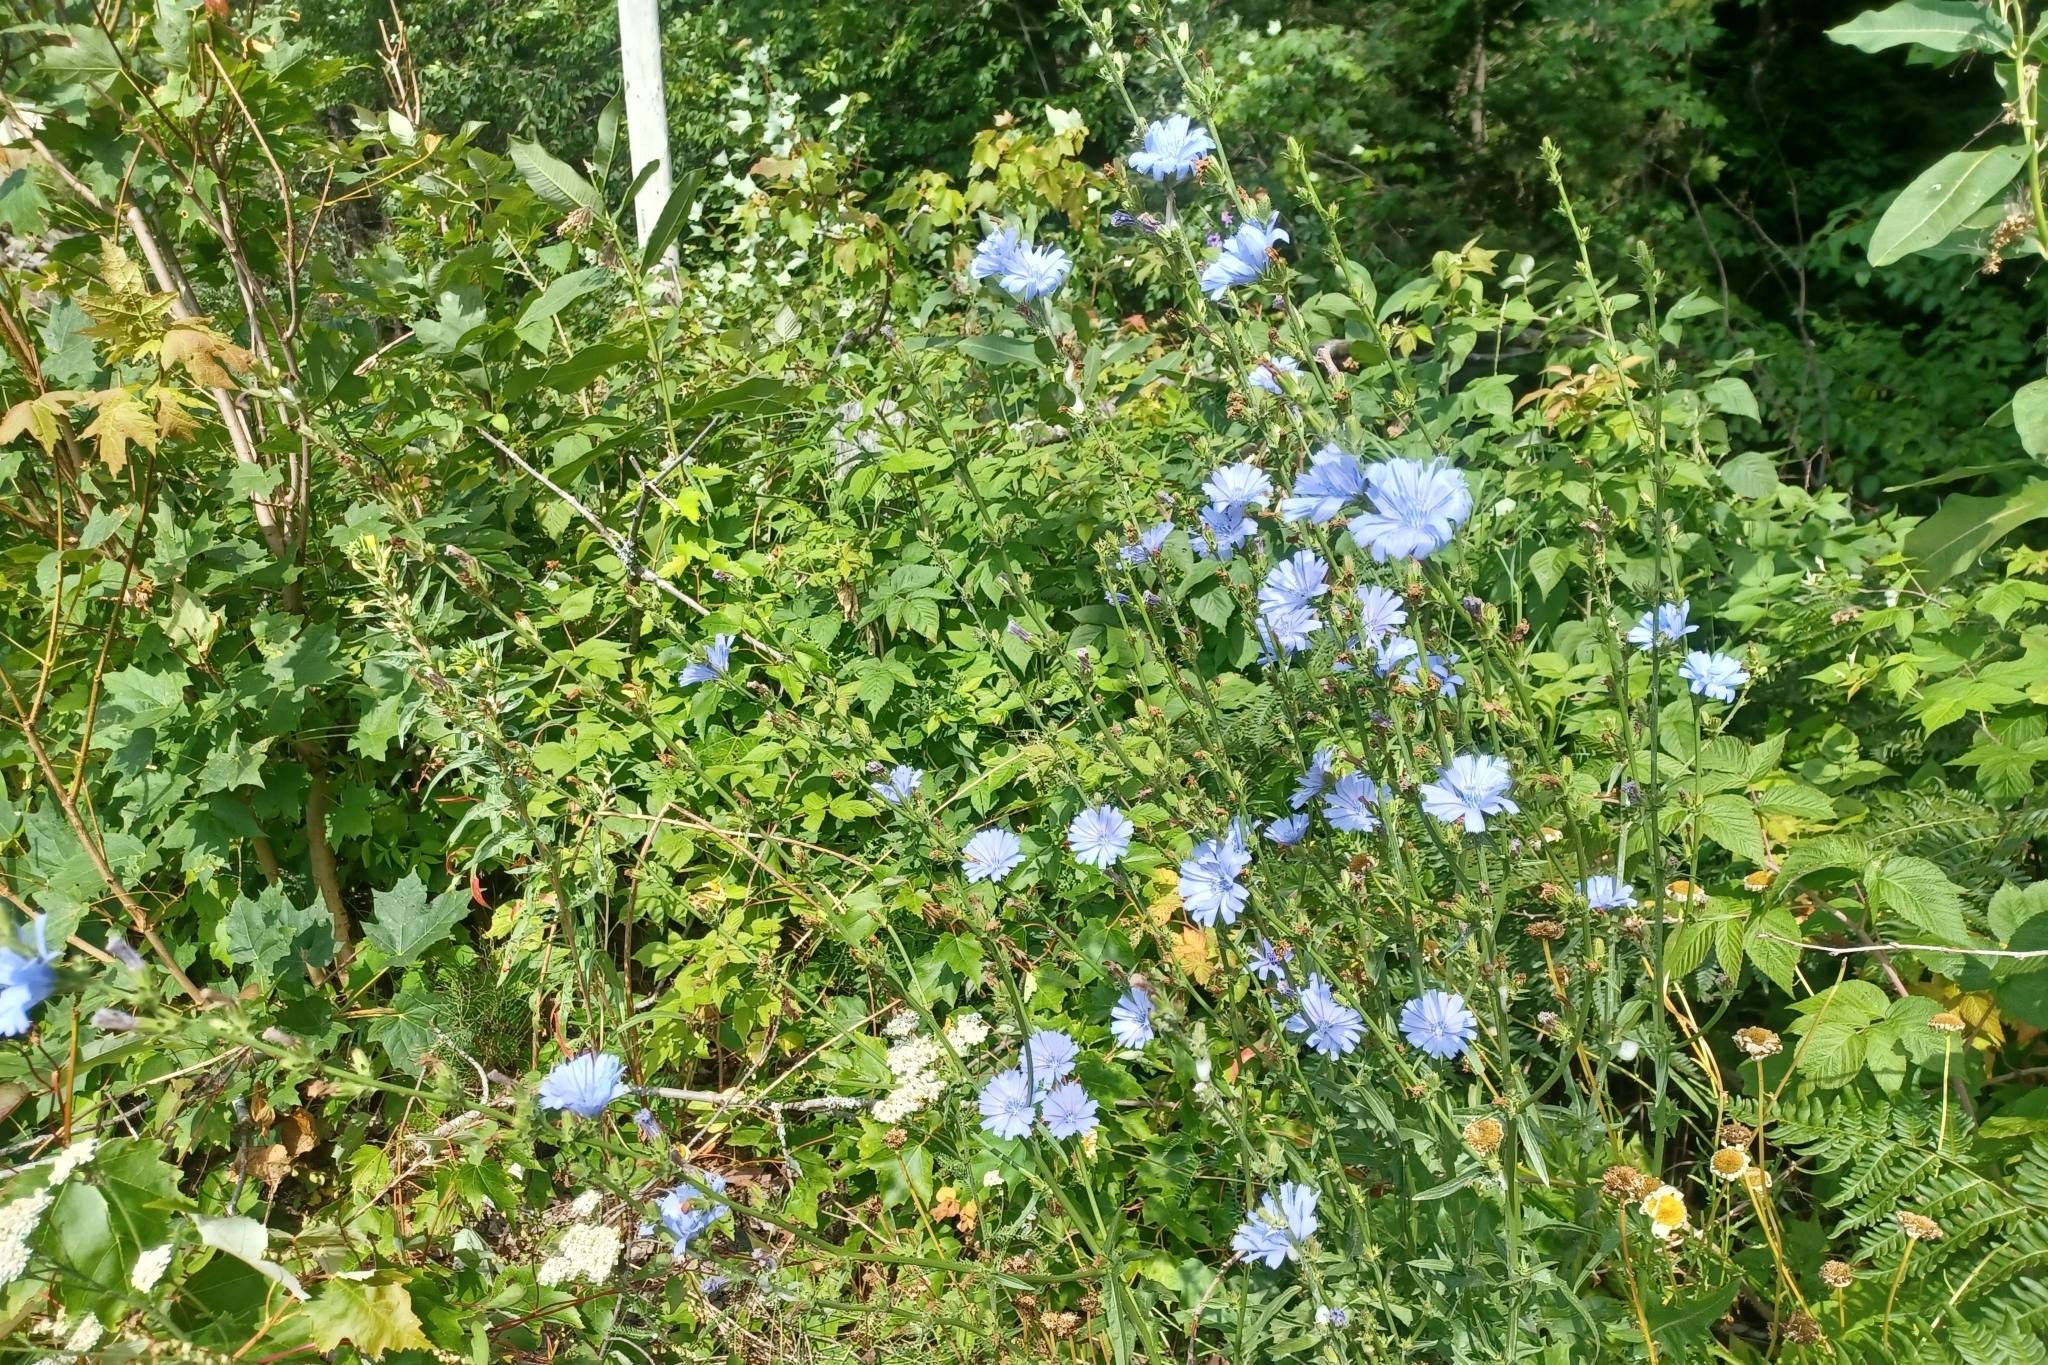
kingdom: Plantae
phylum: Tracheophyta
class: Magnoliopsida
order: Asterales
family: Asteraceae
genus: Cichorium
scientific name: Cichorium intybus
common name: Chicory
